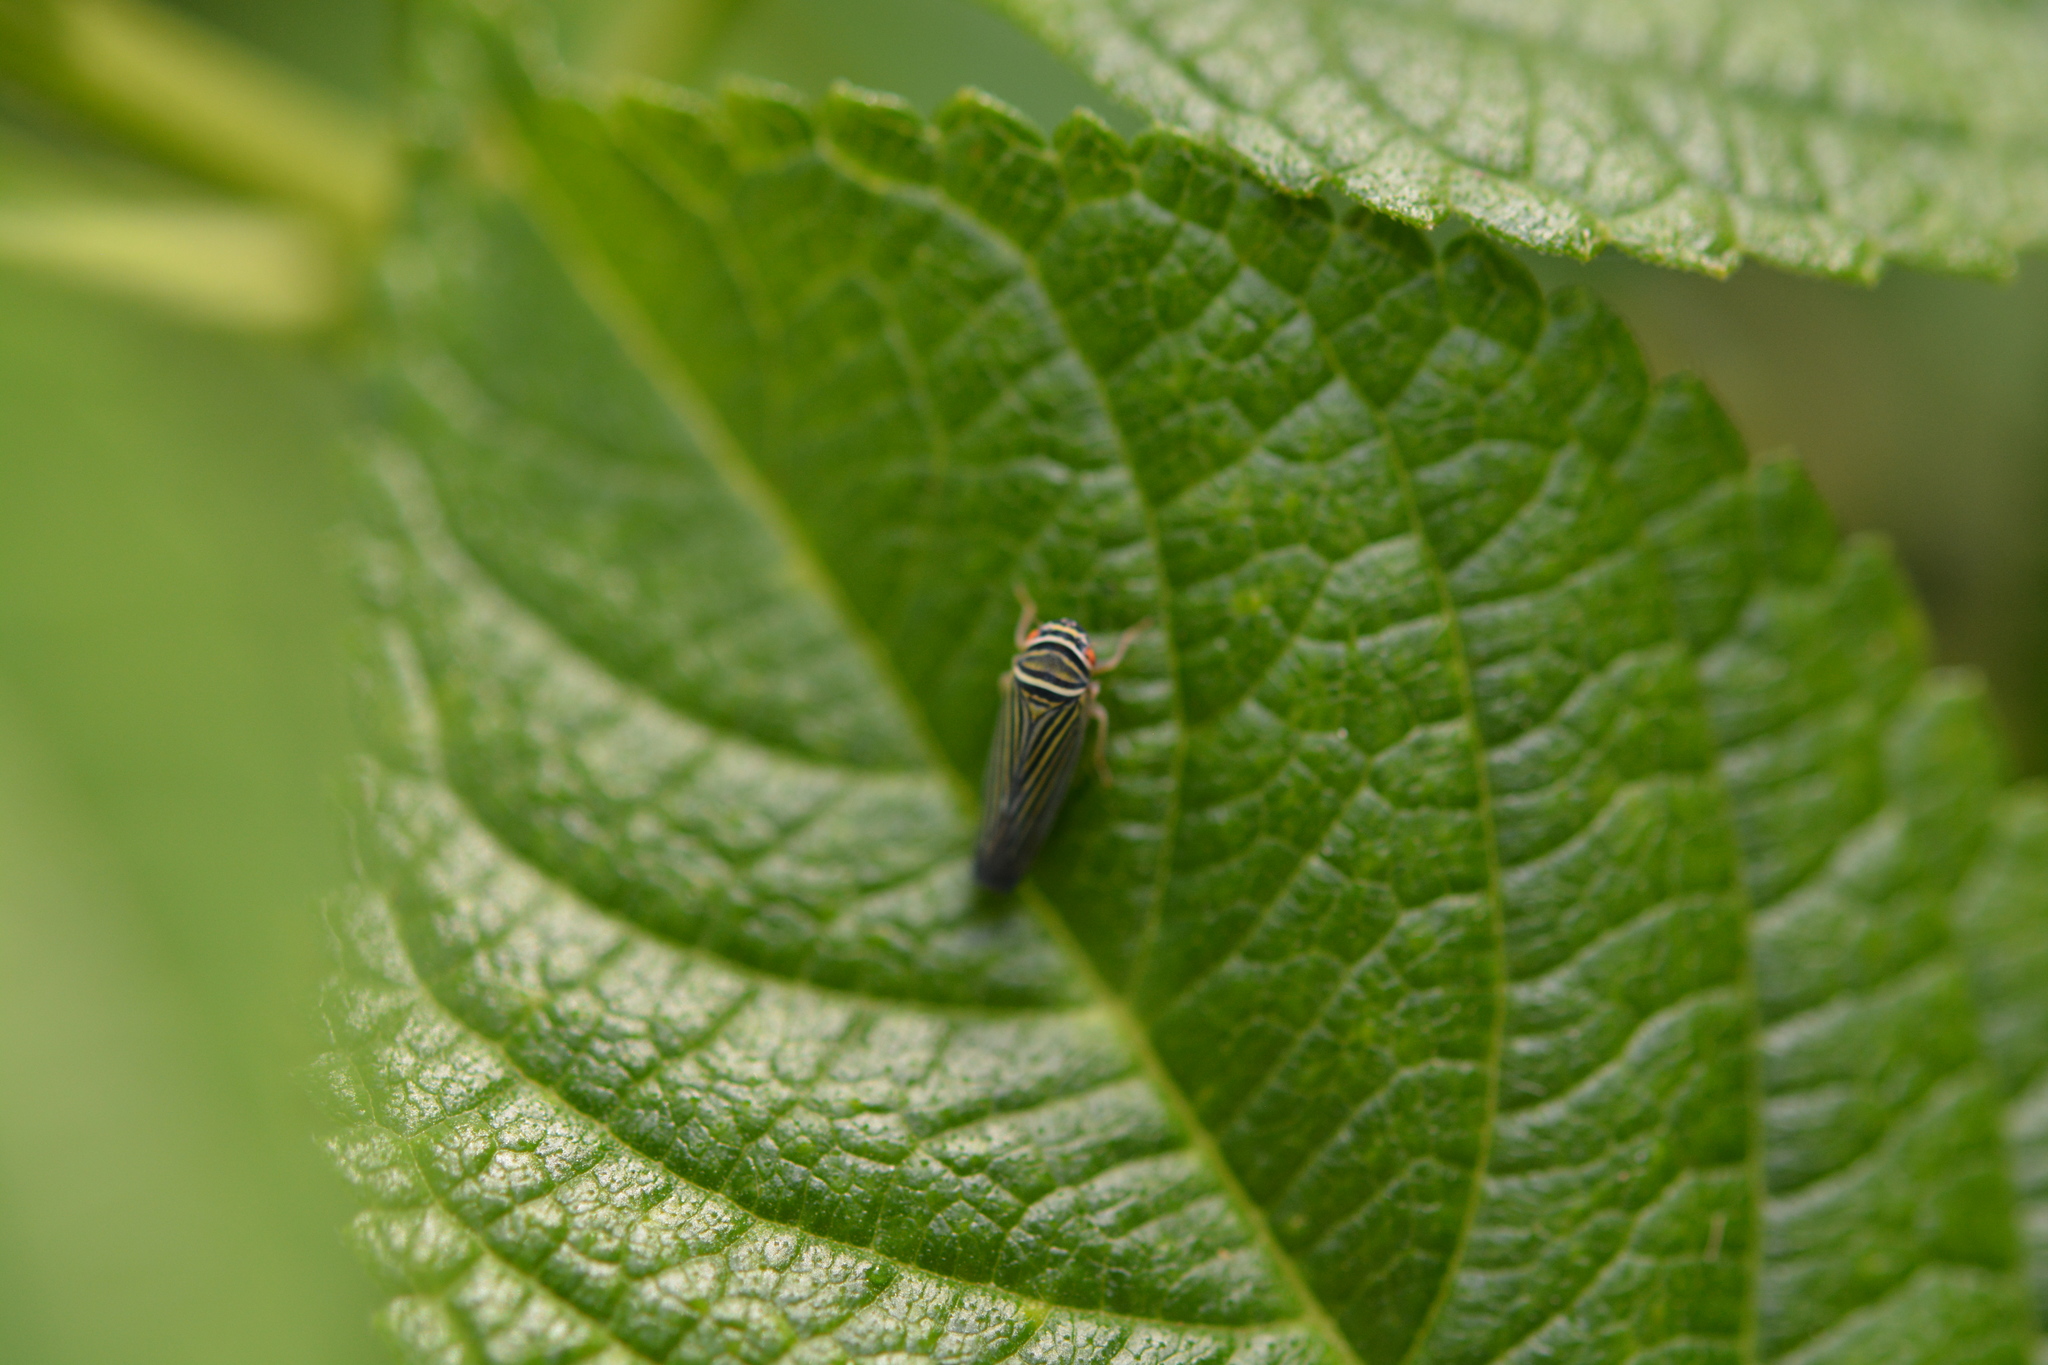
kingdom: Animalia
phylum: Arthropoda
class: Insecta
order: Hemiptera
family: Cicadellidae
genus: Tylozygus
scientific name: Tylozygus bifidus
